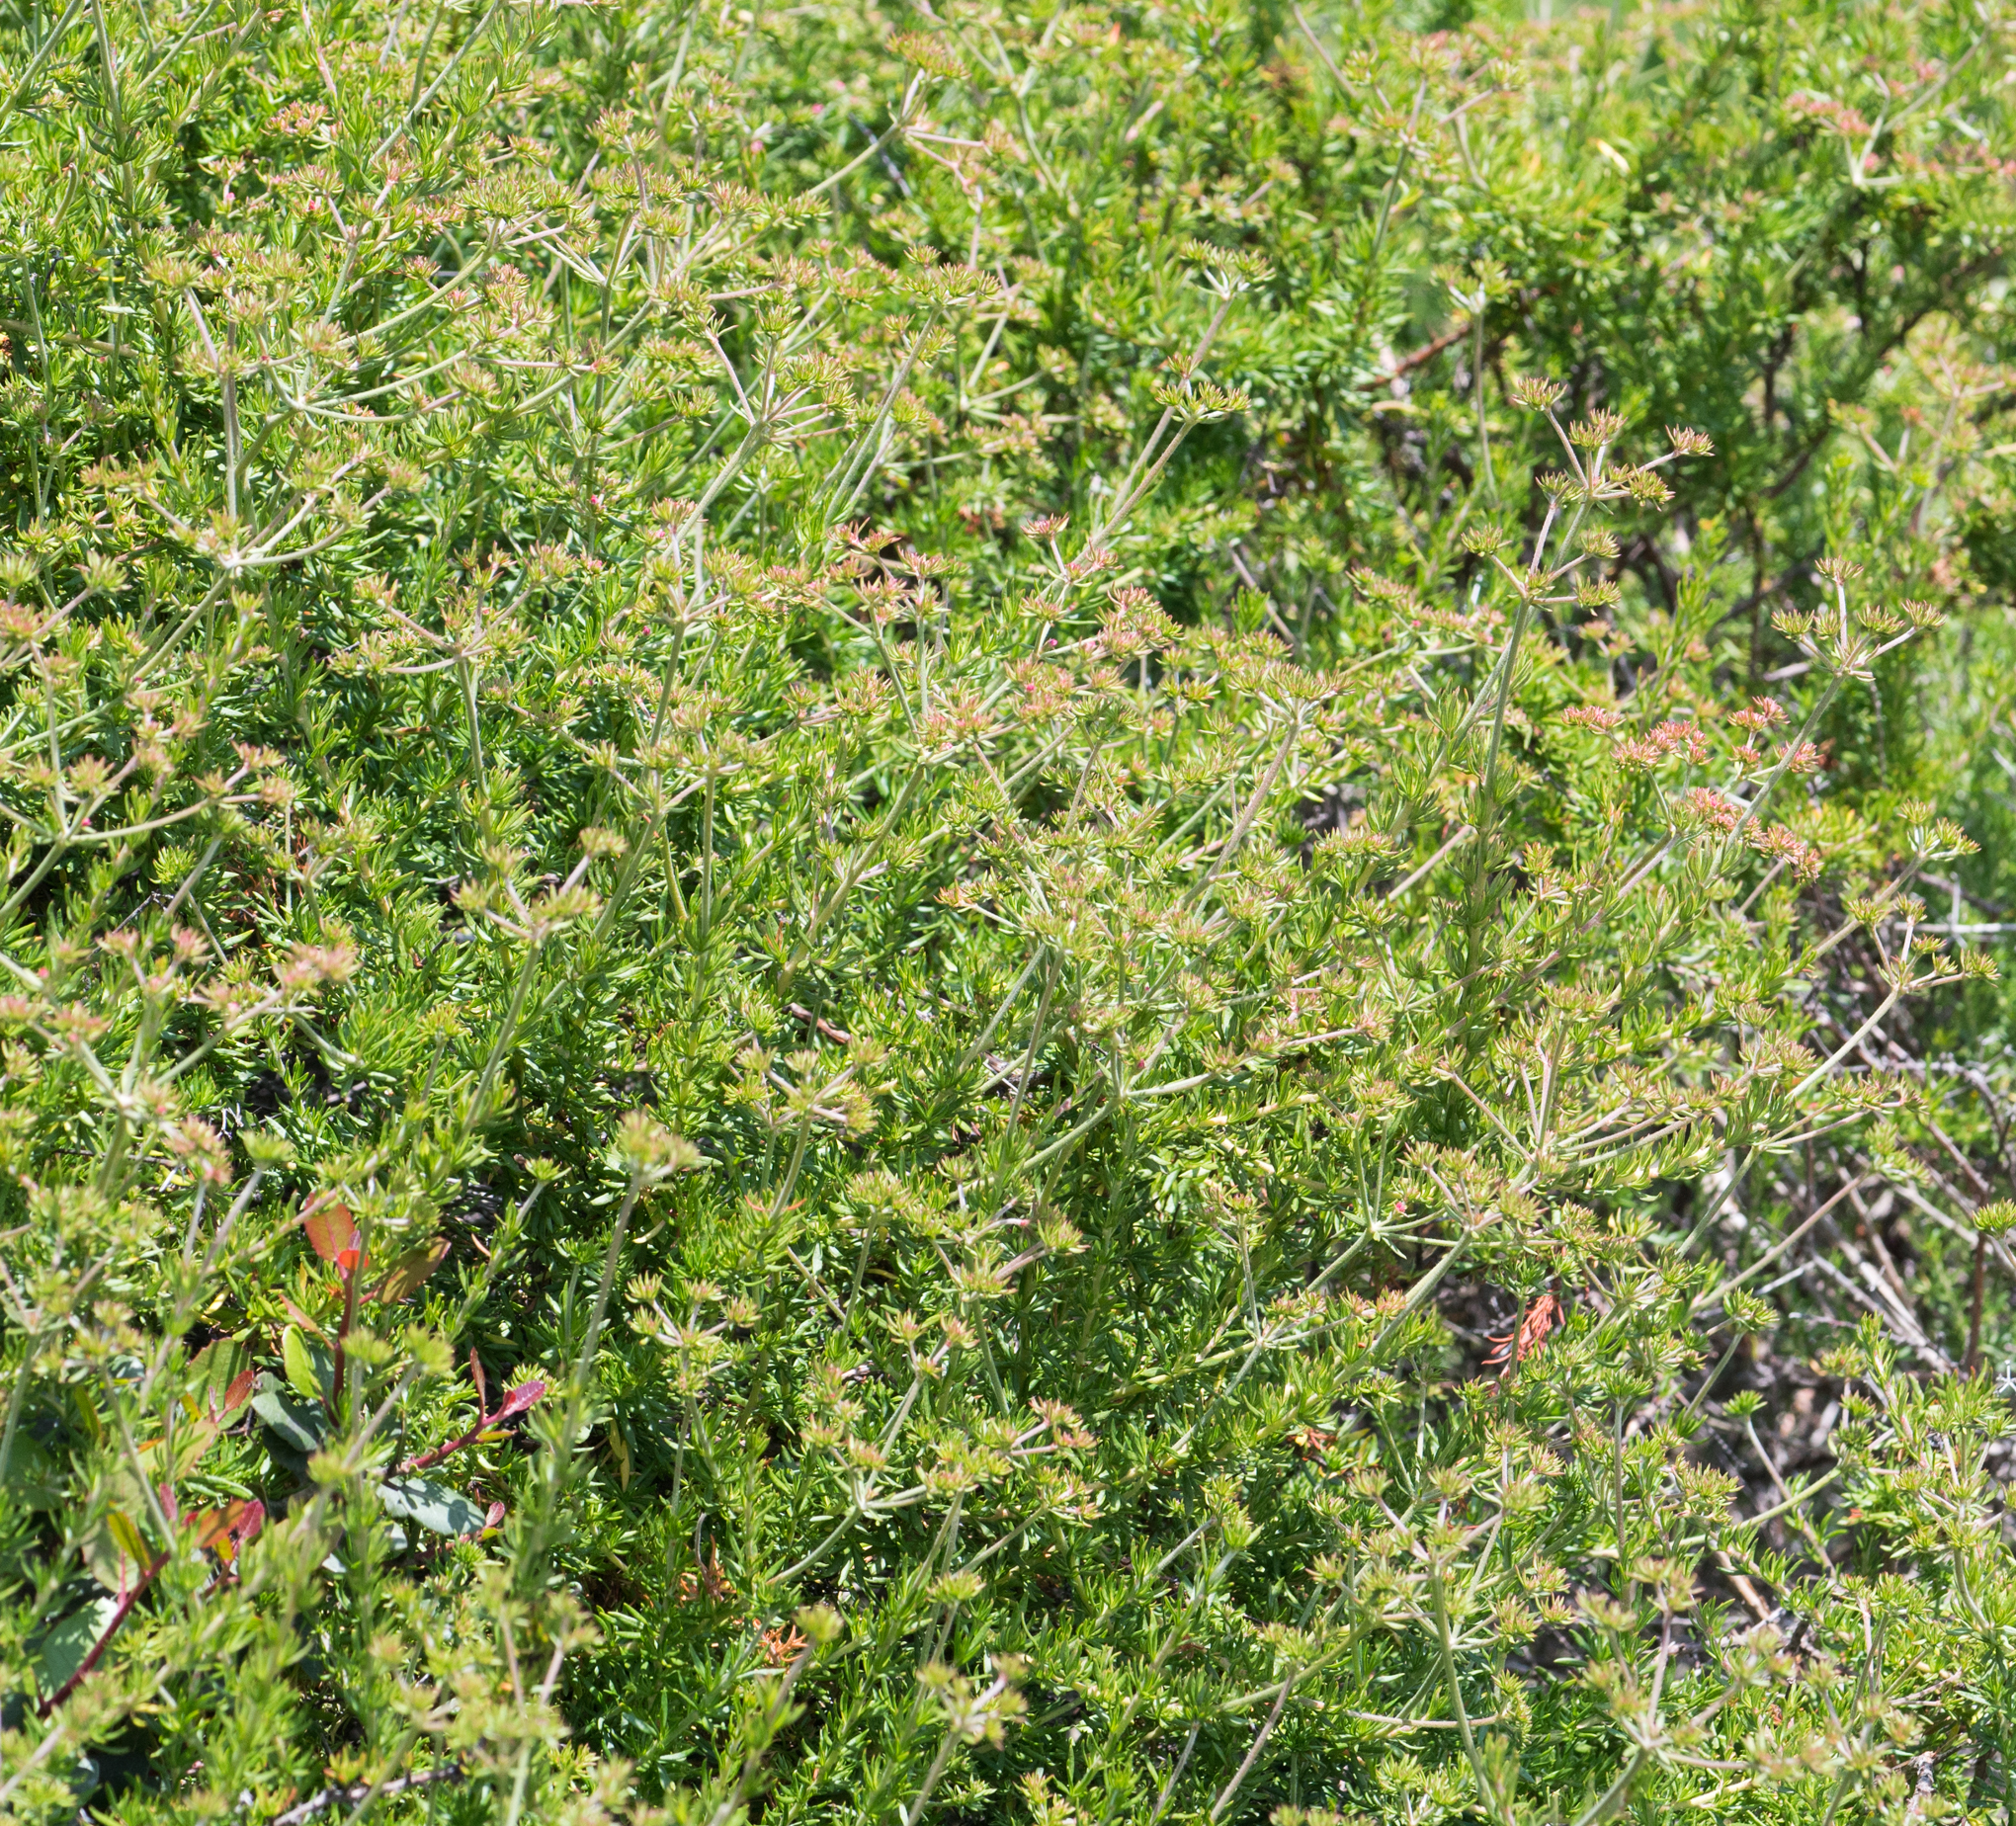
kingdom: Plantae
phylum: Tracheophyta
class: Magnoliopsida
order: Caryophyllales
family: Polygonaceae
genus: Eriogonum
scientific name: Eriogonum fasciculatum
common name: California wild buckwheat
